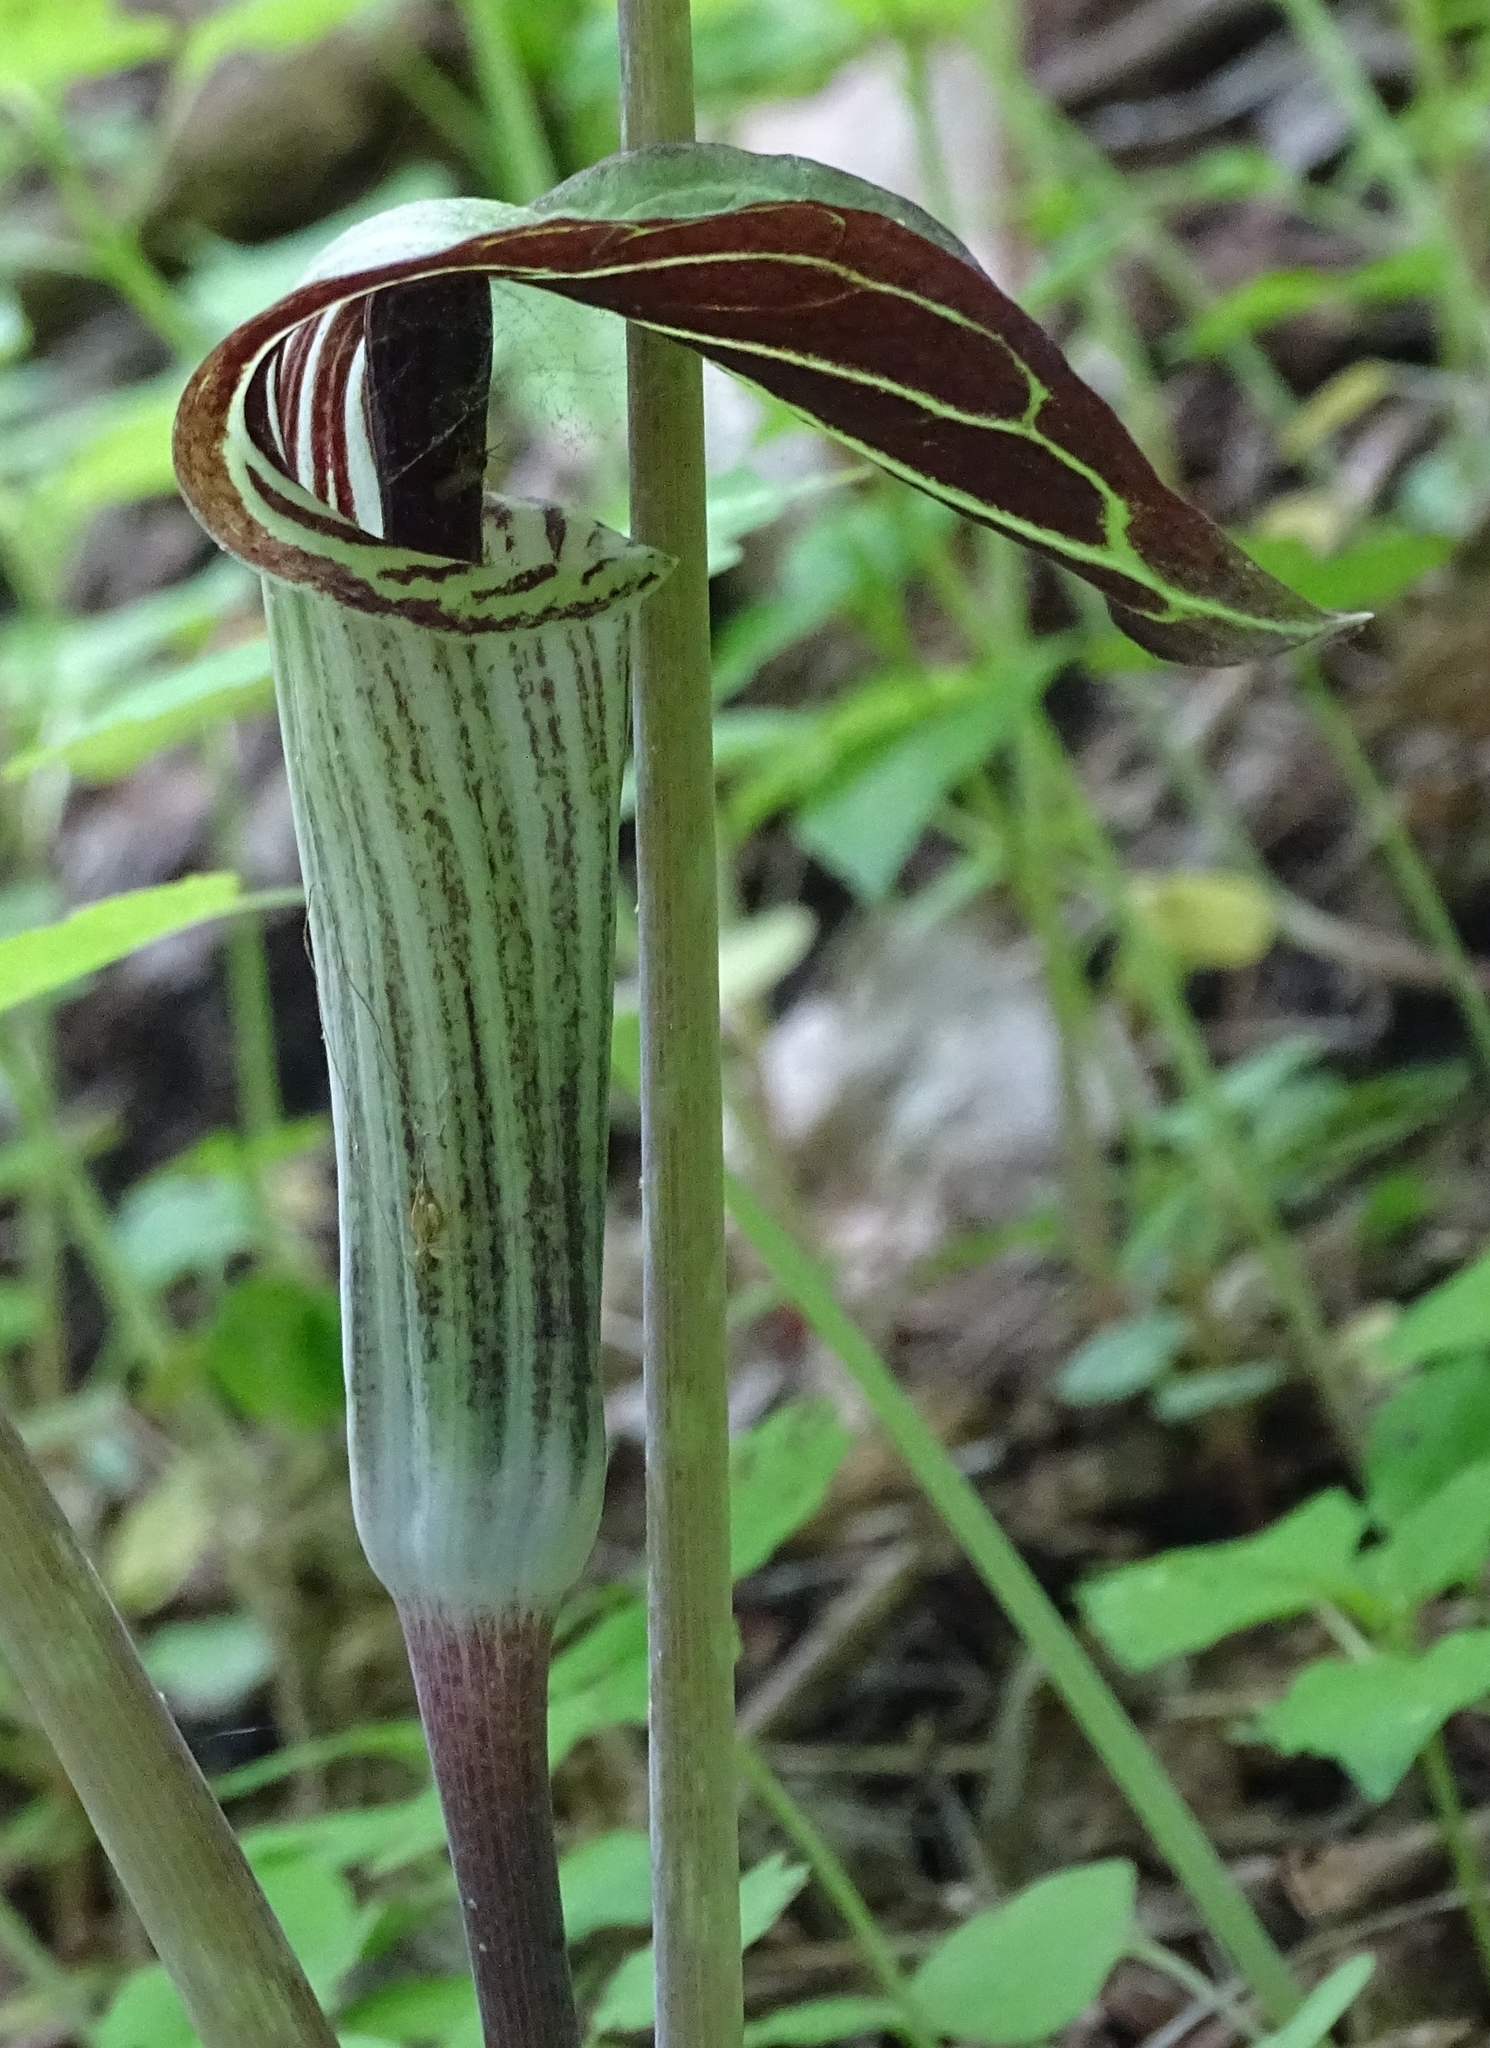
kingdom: Plantae
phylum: Tracheophyta
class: Liliopsida
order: Alismatales
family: Araceae
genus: Arisaema
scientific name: Arisaema triphyllum
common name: Jack-in-the-pulpit
